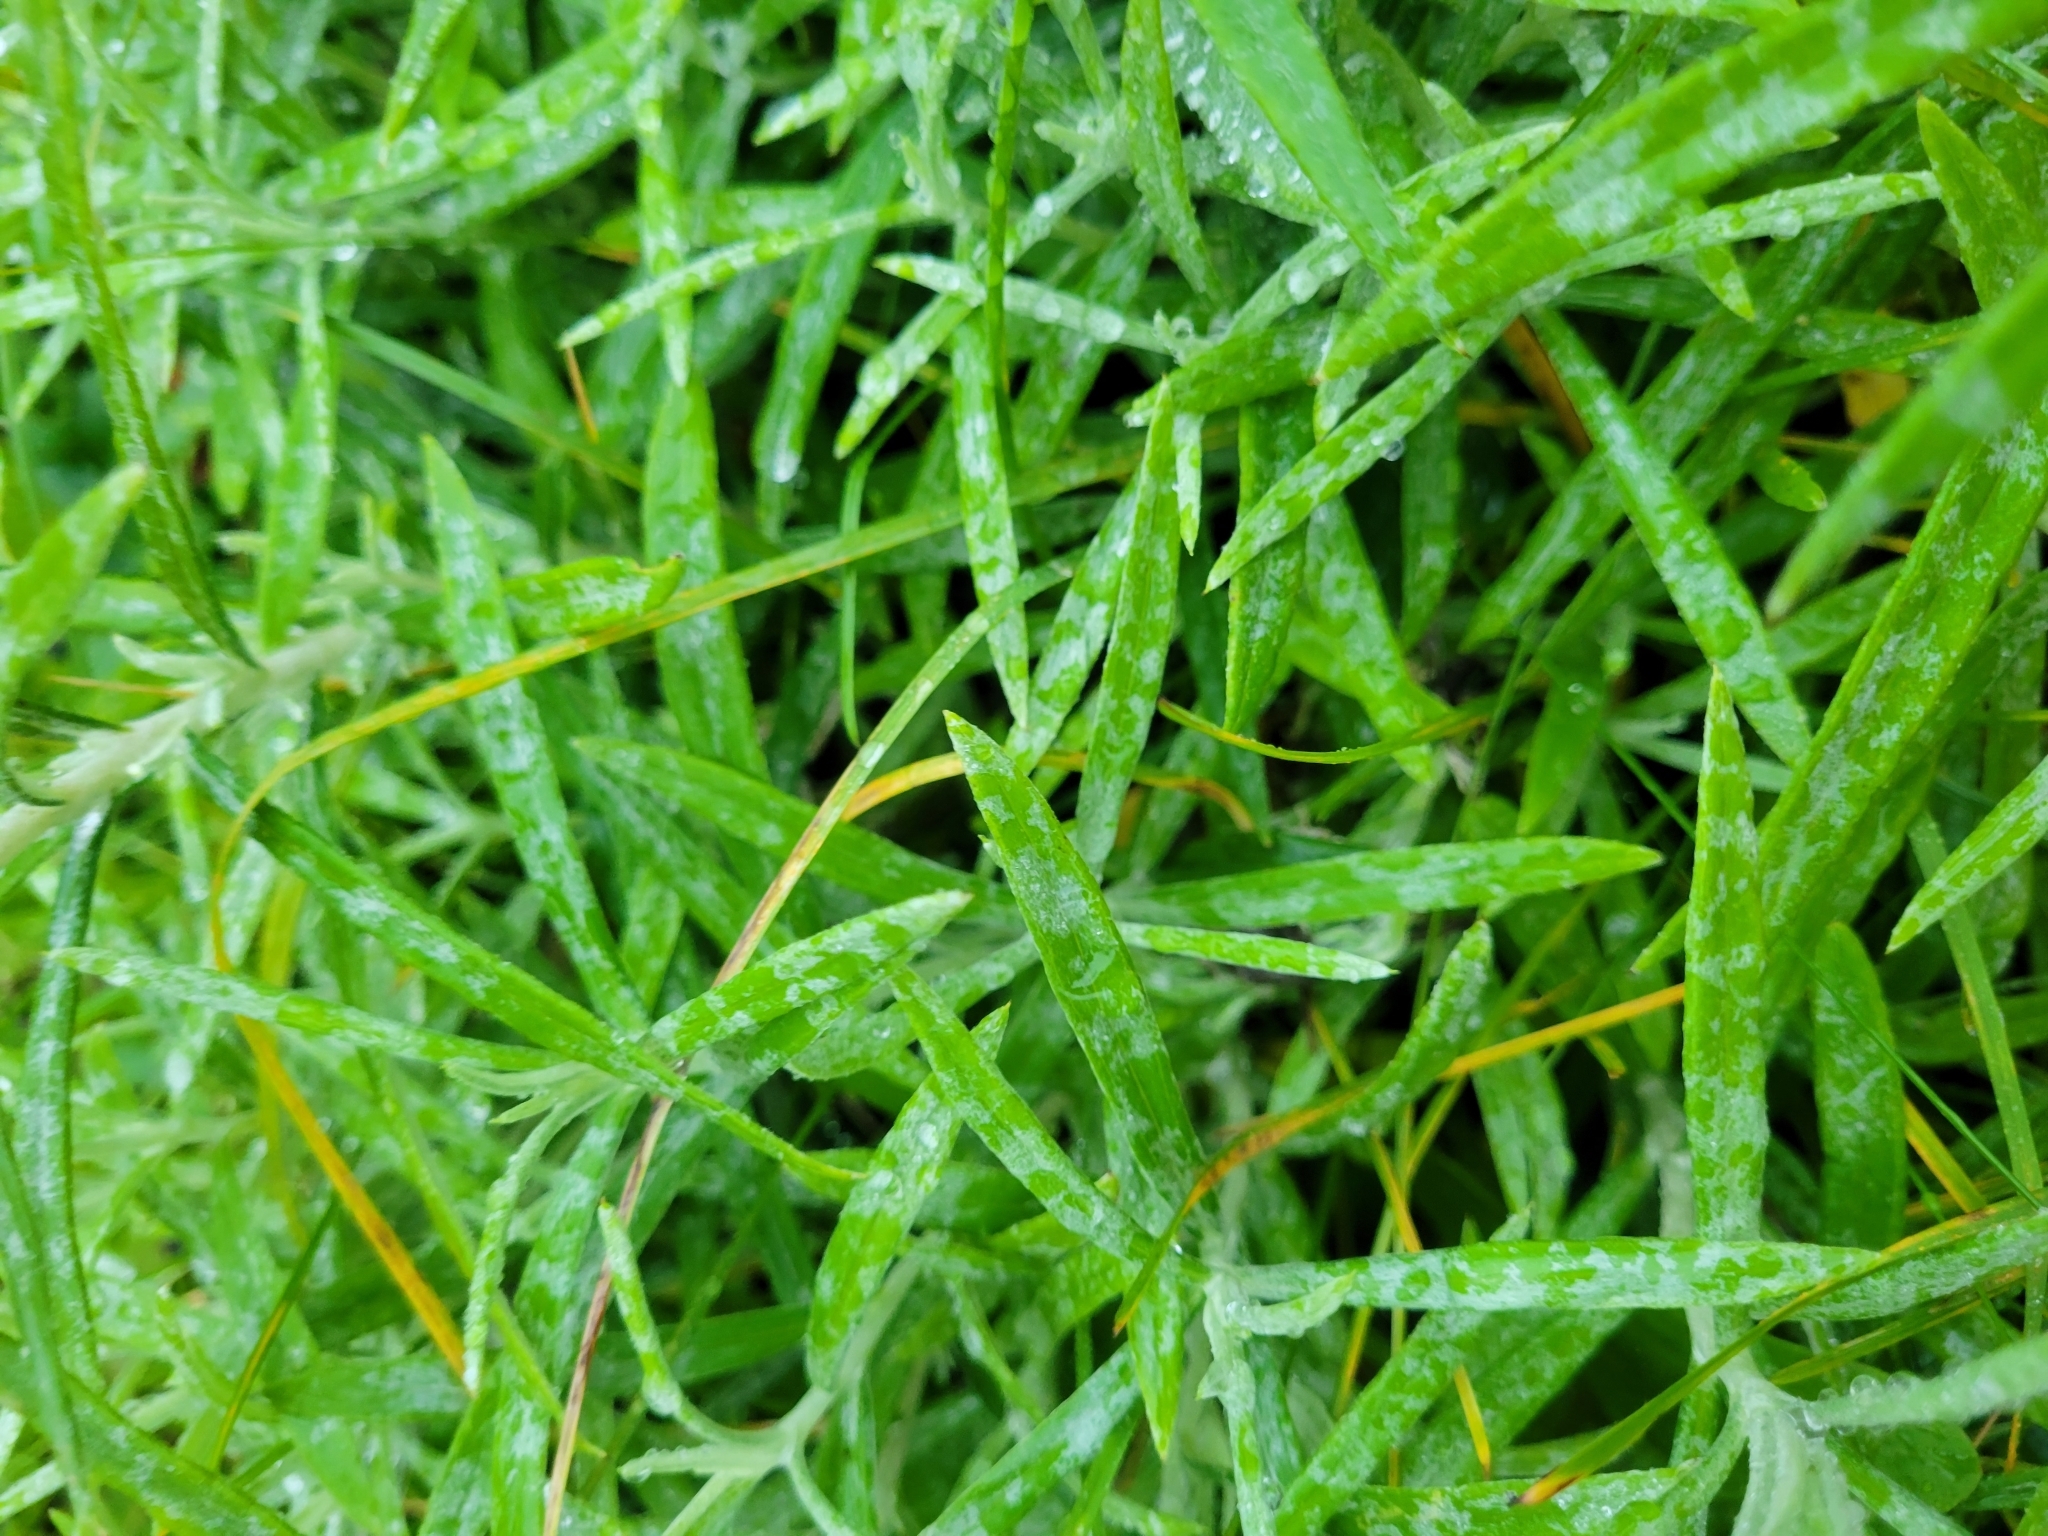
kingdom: Plantae
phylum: Tracheophyta
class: Magnoliopsida
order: Asterales
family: Asteraceae
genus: Anaphalis
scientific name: Anaphalis margaritacea
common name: Pearly everlasting
